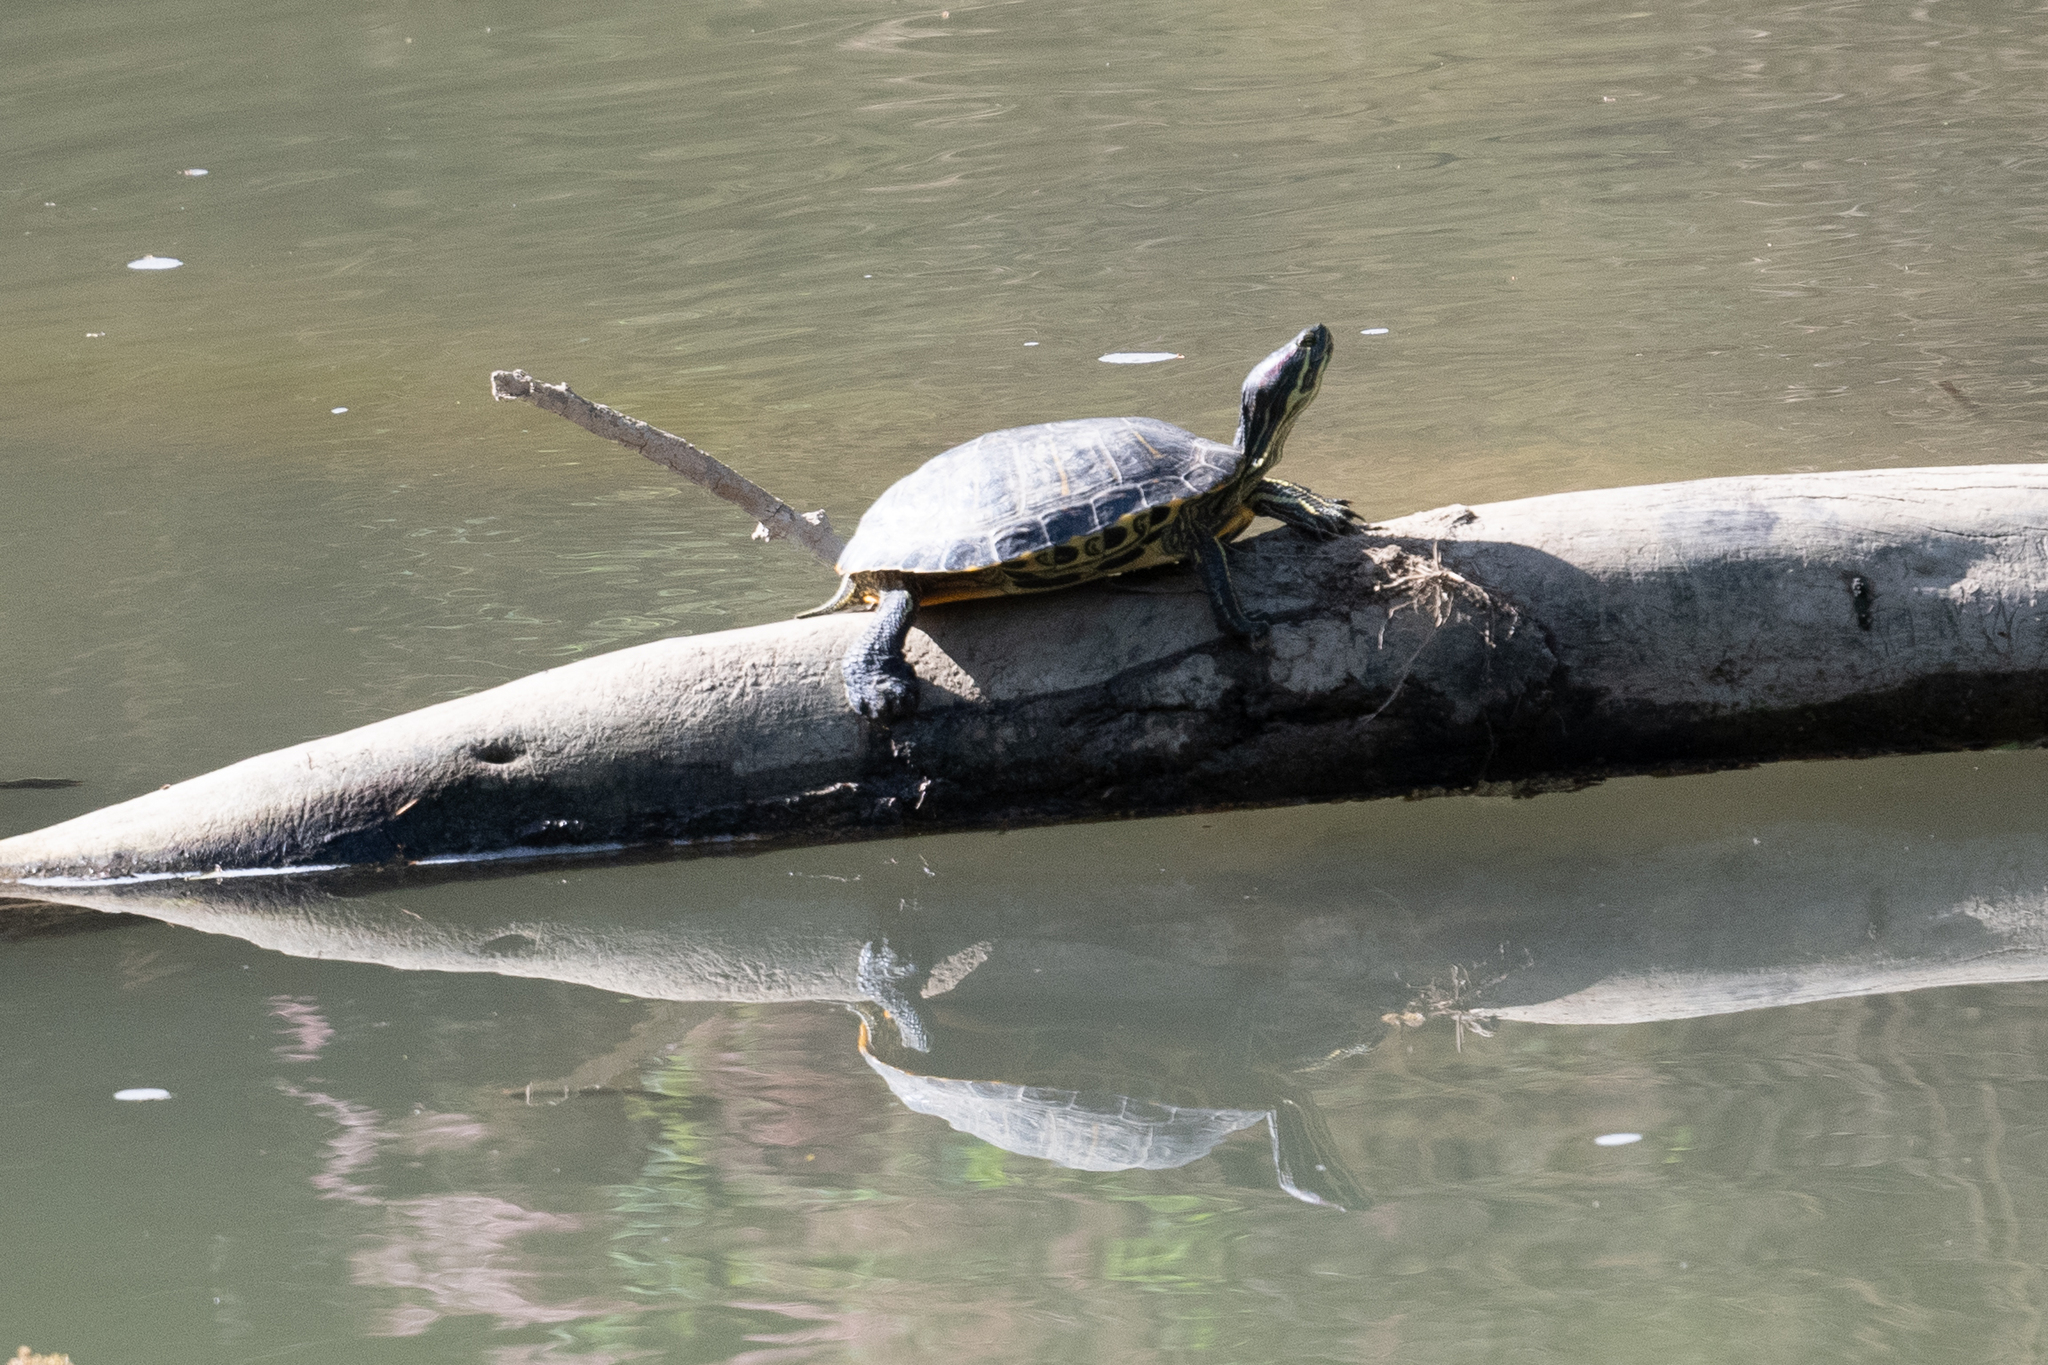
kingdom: Animalia
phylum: Chordata
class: Testudines
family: Emydidae
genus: Trachemys
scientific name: Trachemys scripta
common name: Slider
